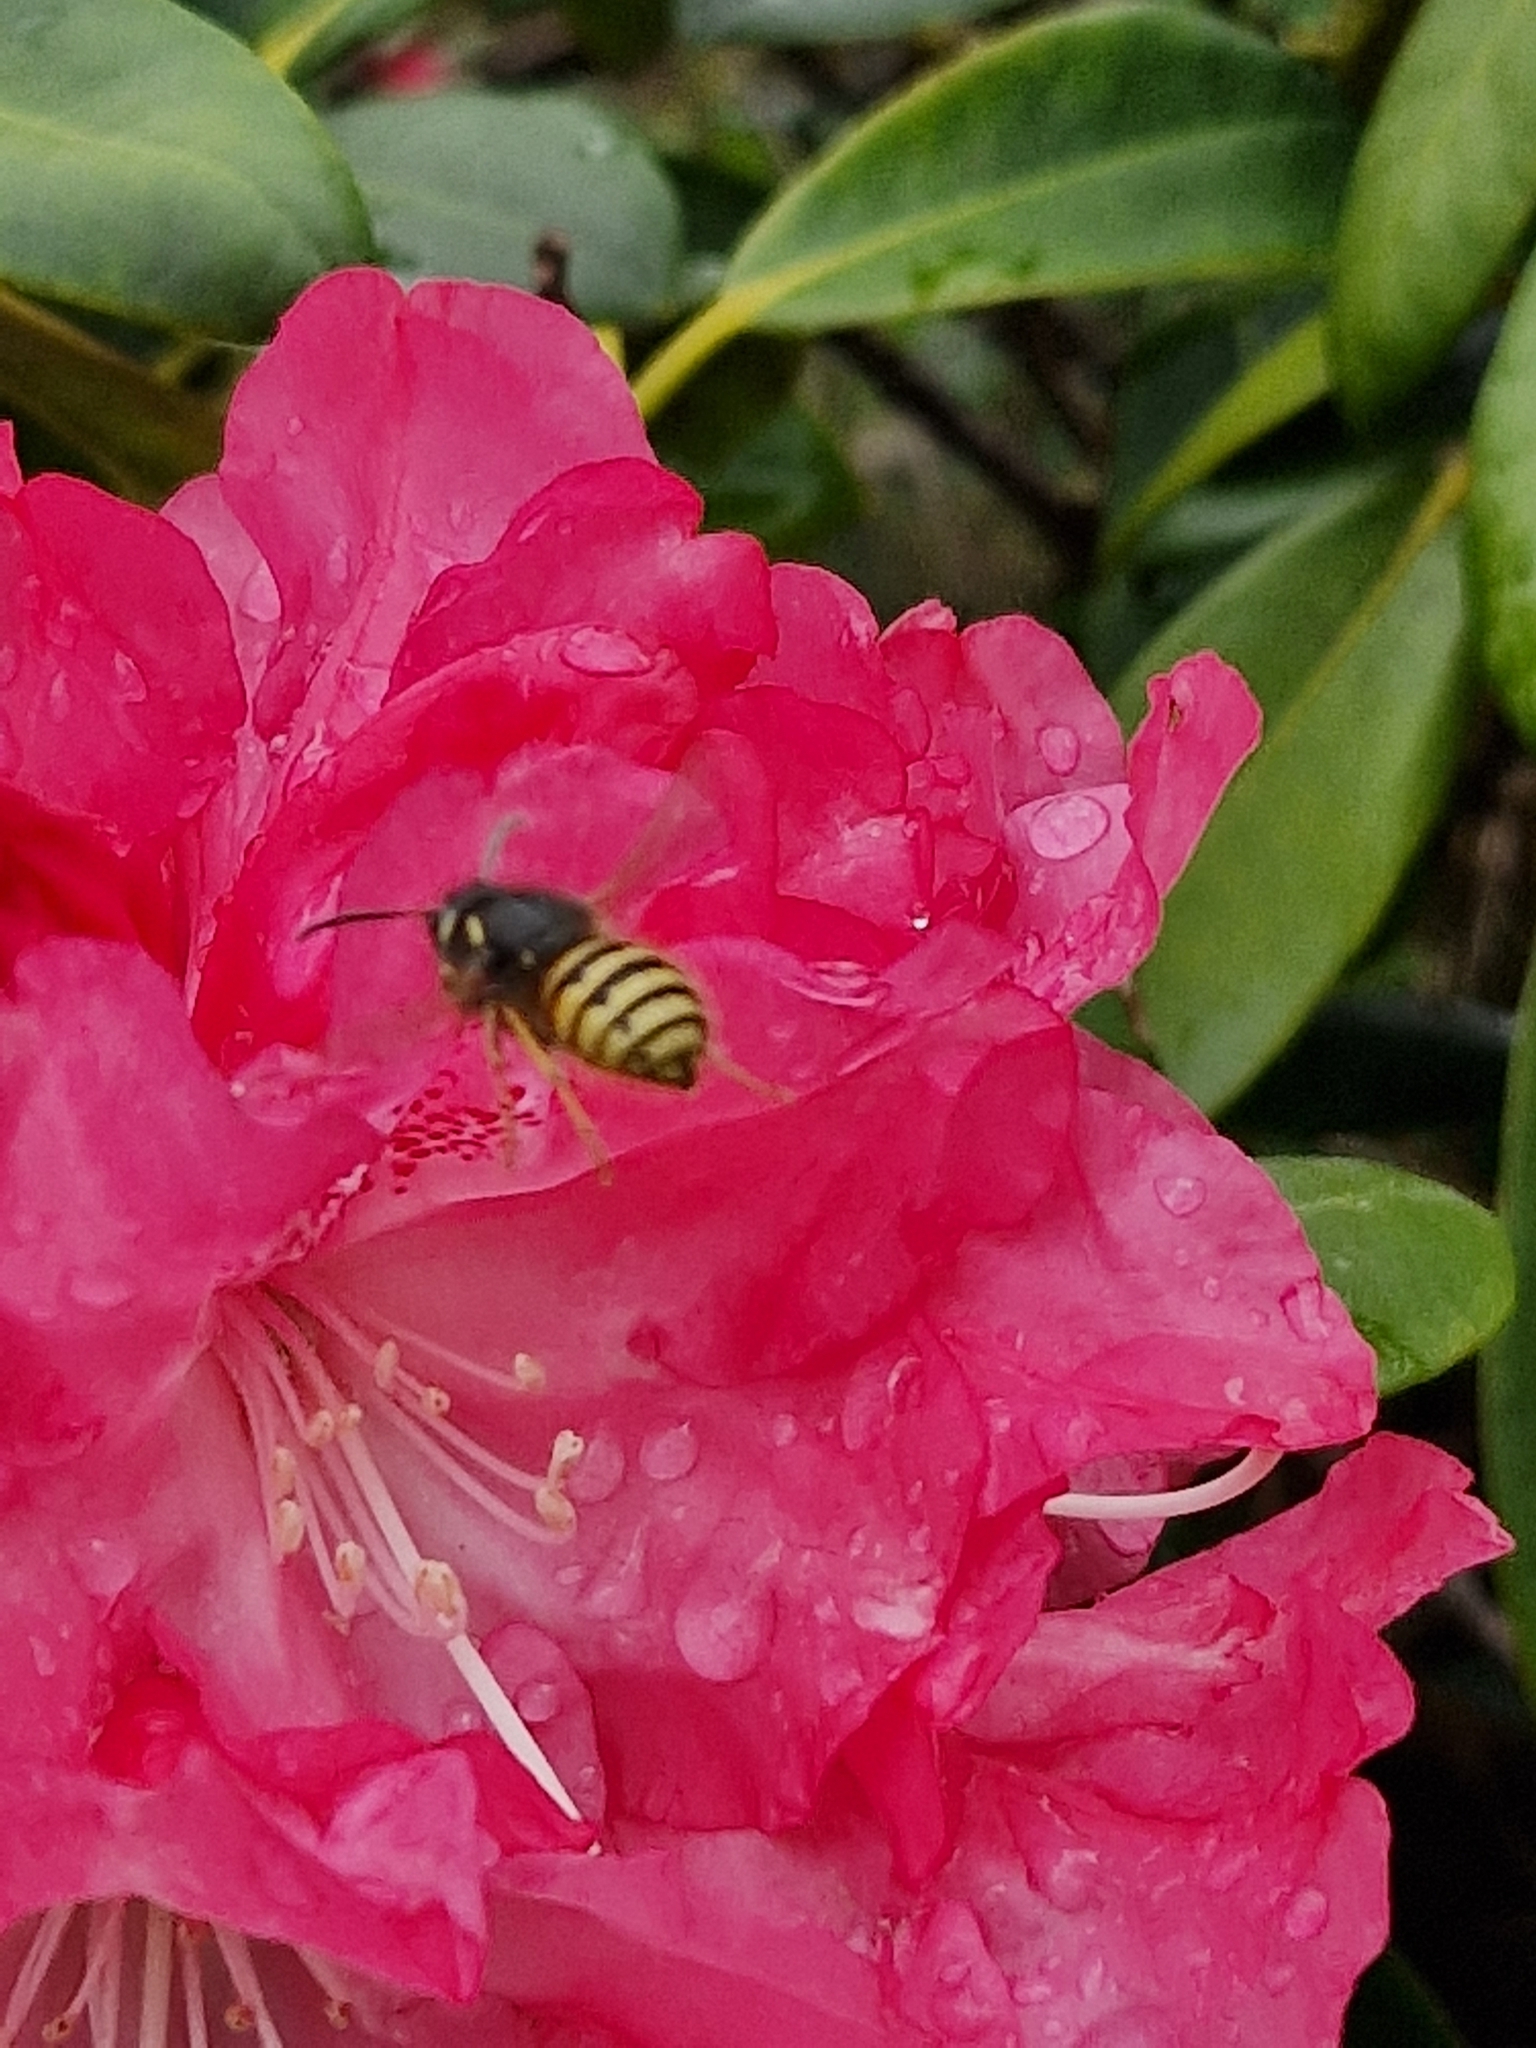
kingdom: Animalia
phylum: Arthropoda
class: Insecta
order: Hymenoptera
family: Vespidae
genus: Vespula
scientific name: Vespula vulgaris
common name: Common wasp
